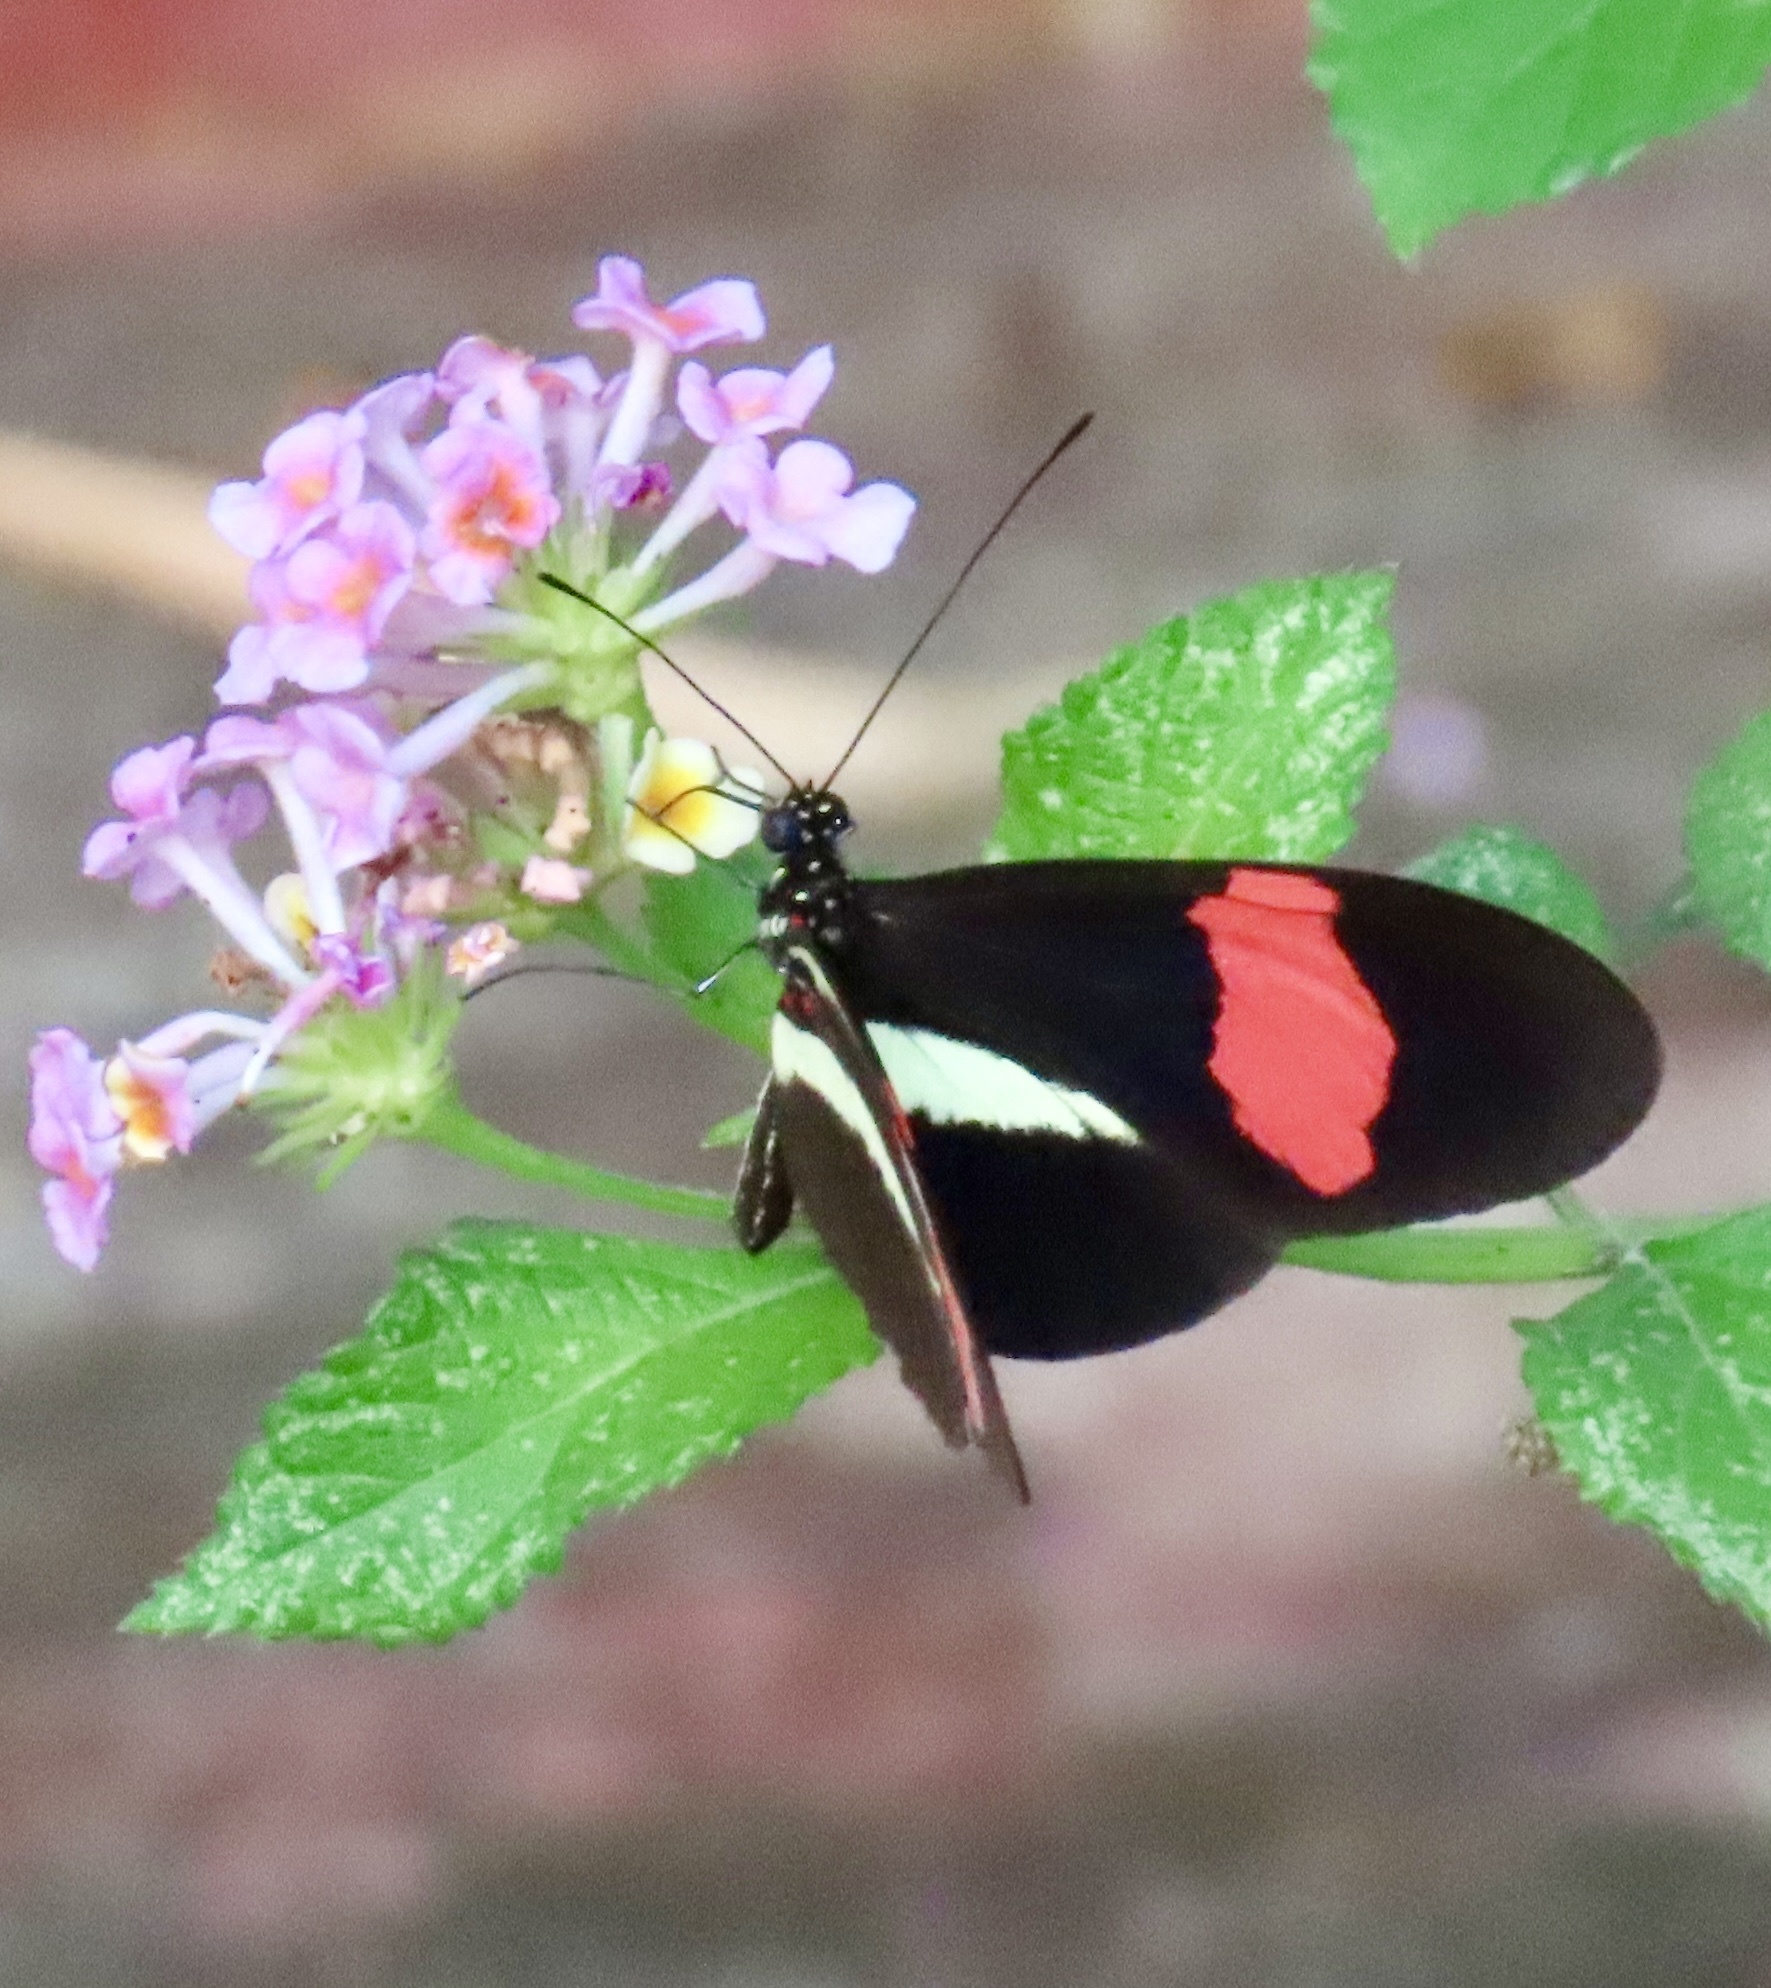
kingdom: Animalia
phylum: Arthropoda
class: Insecta
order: Lepidoptera
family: Nymphalidae
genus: Tirumala
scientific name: Tirumala petiverana
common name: Blue monarch
